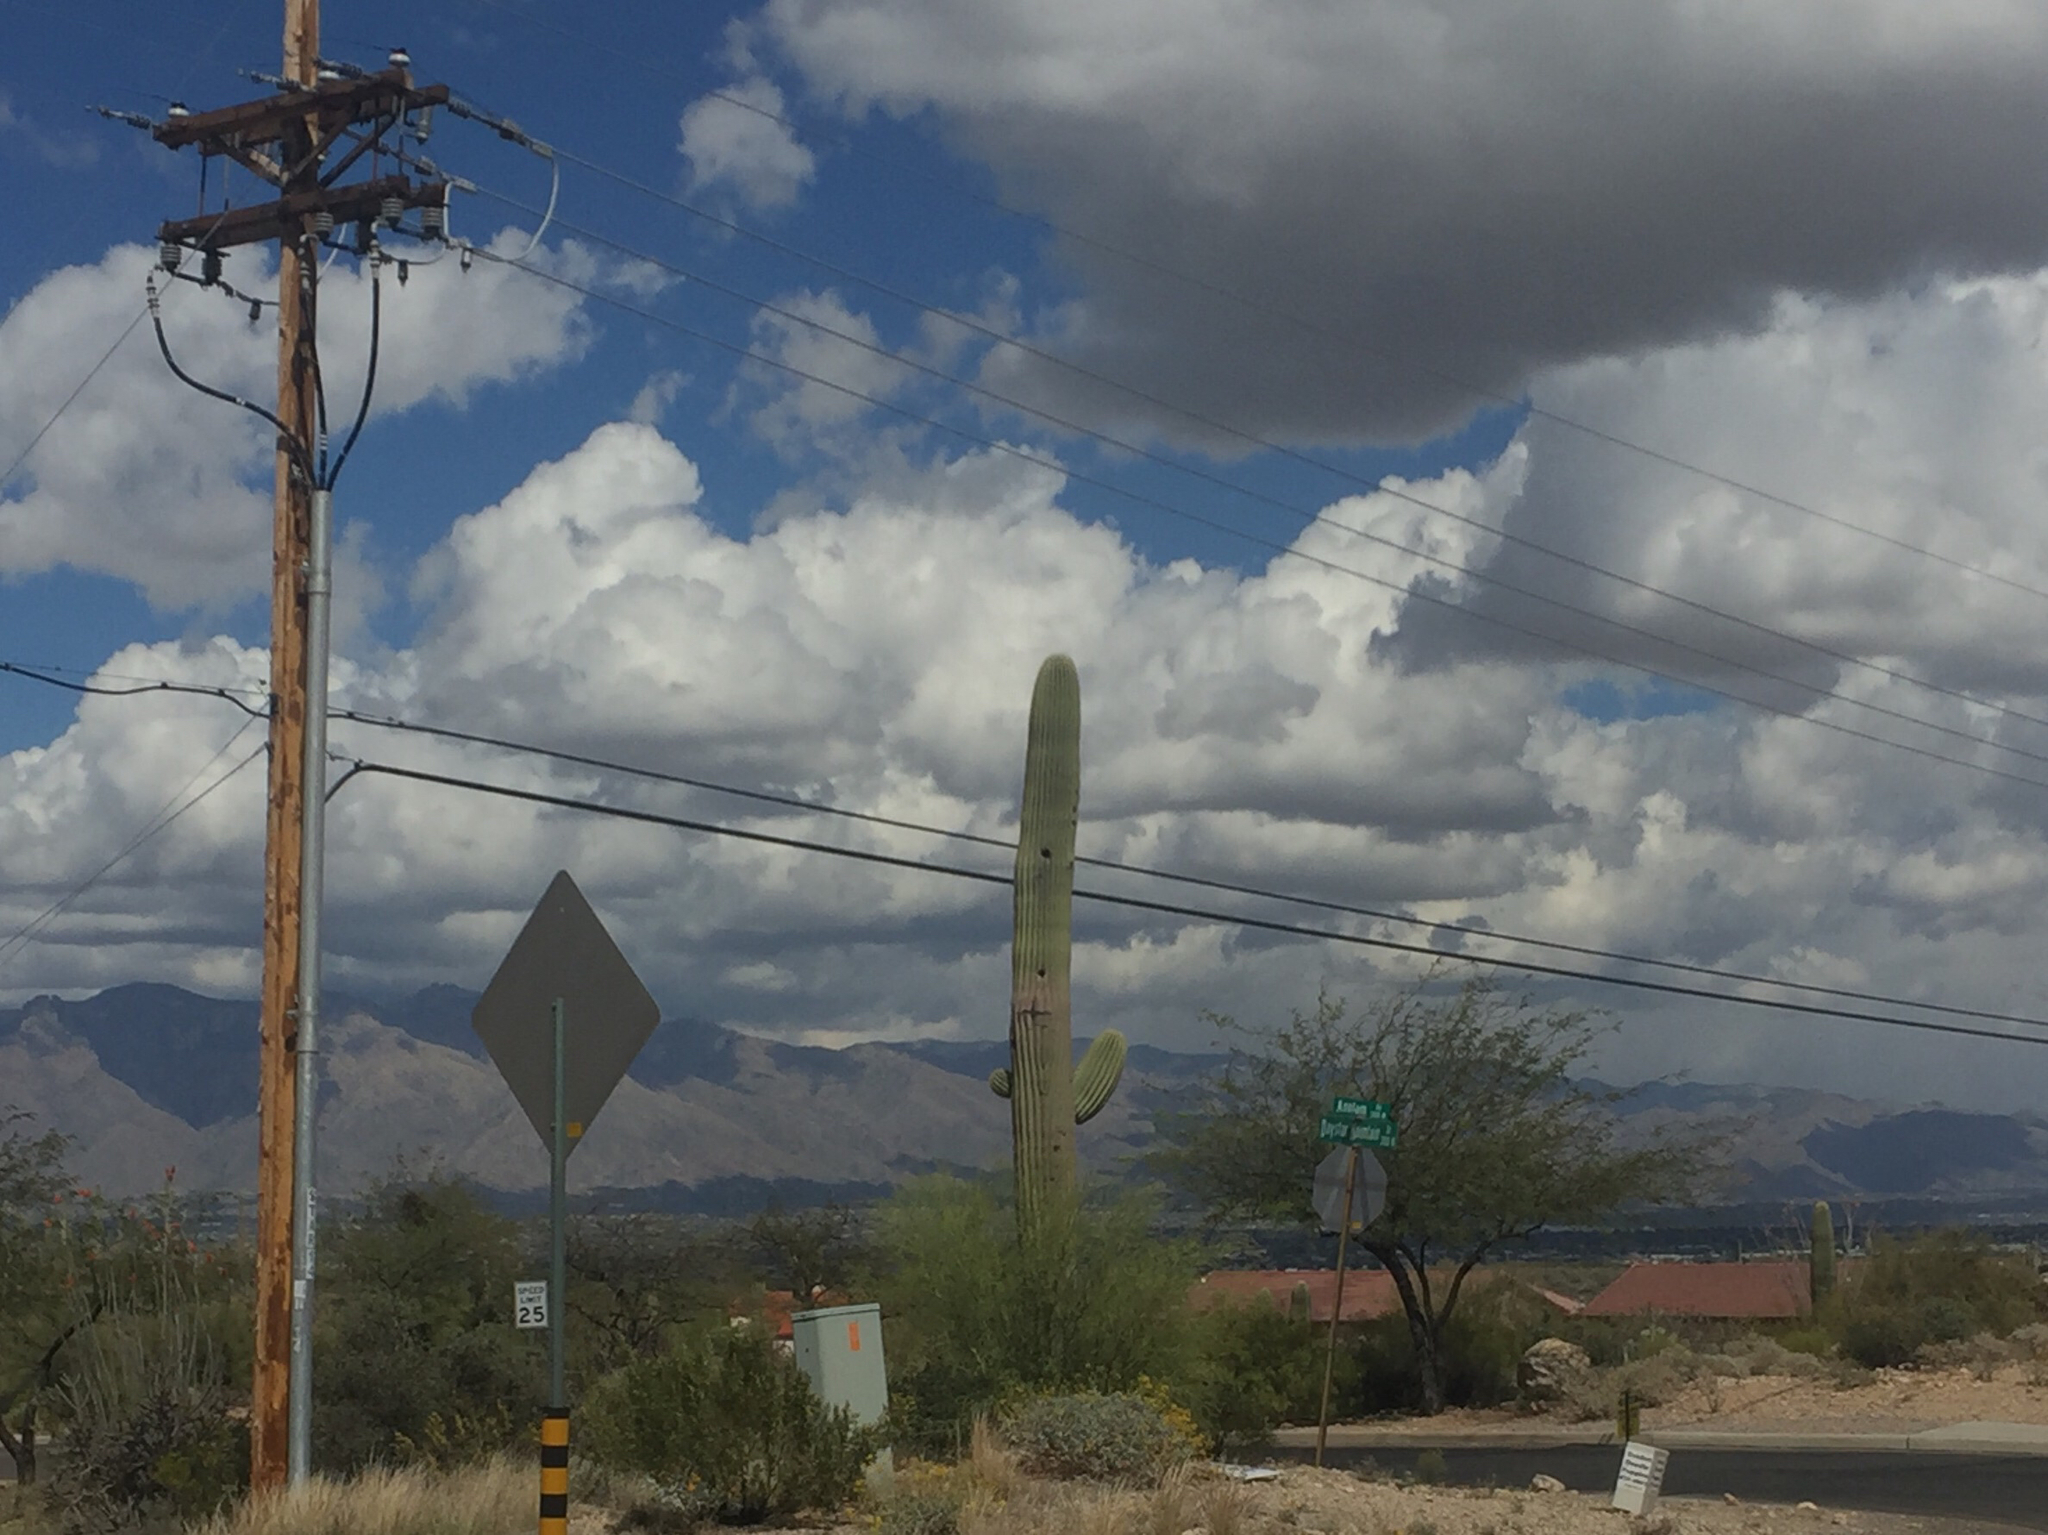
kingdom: Plantae
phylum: Tracheophyta
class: Magnoliopsida
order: Caryophyllales
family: Cactaceae
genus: Carnegiea
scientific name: Carnegiea gigantea
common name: Saguaro
